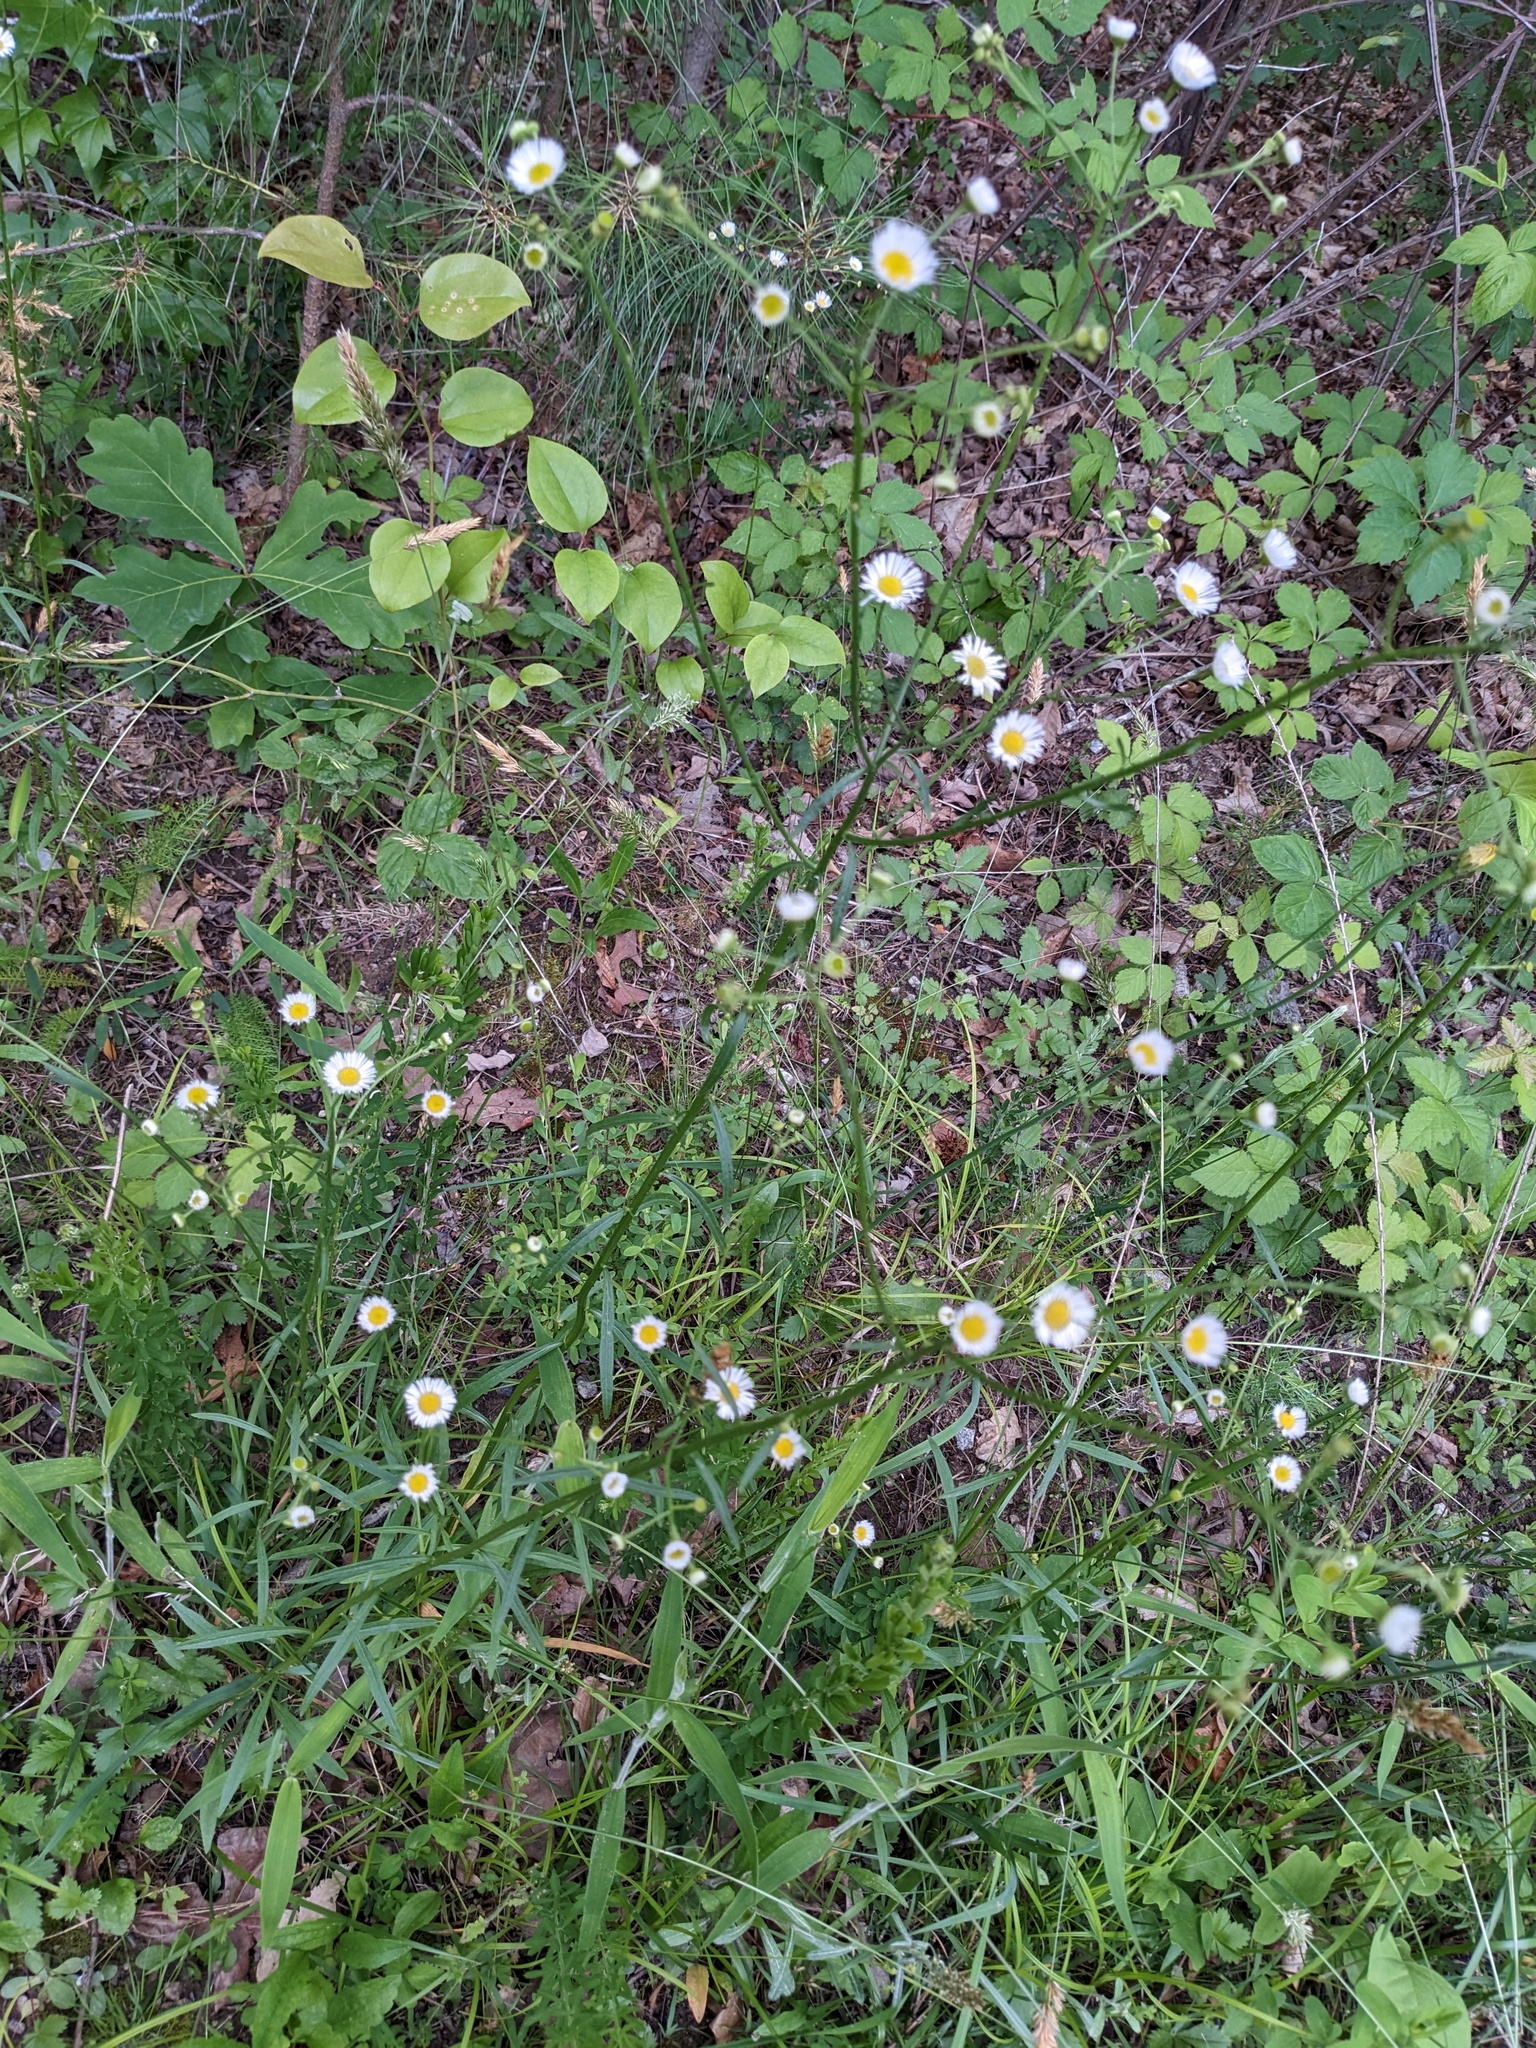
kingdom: Plantae
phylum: Tracheophyta
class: Magnoliopsida
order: Asterales
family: Asteraceae
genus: Erigeron
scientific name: Erigeron strigosus
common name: Common eastern fleabane
